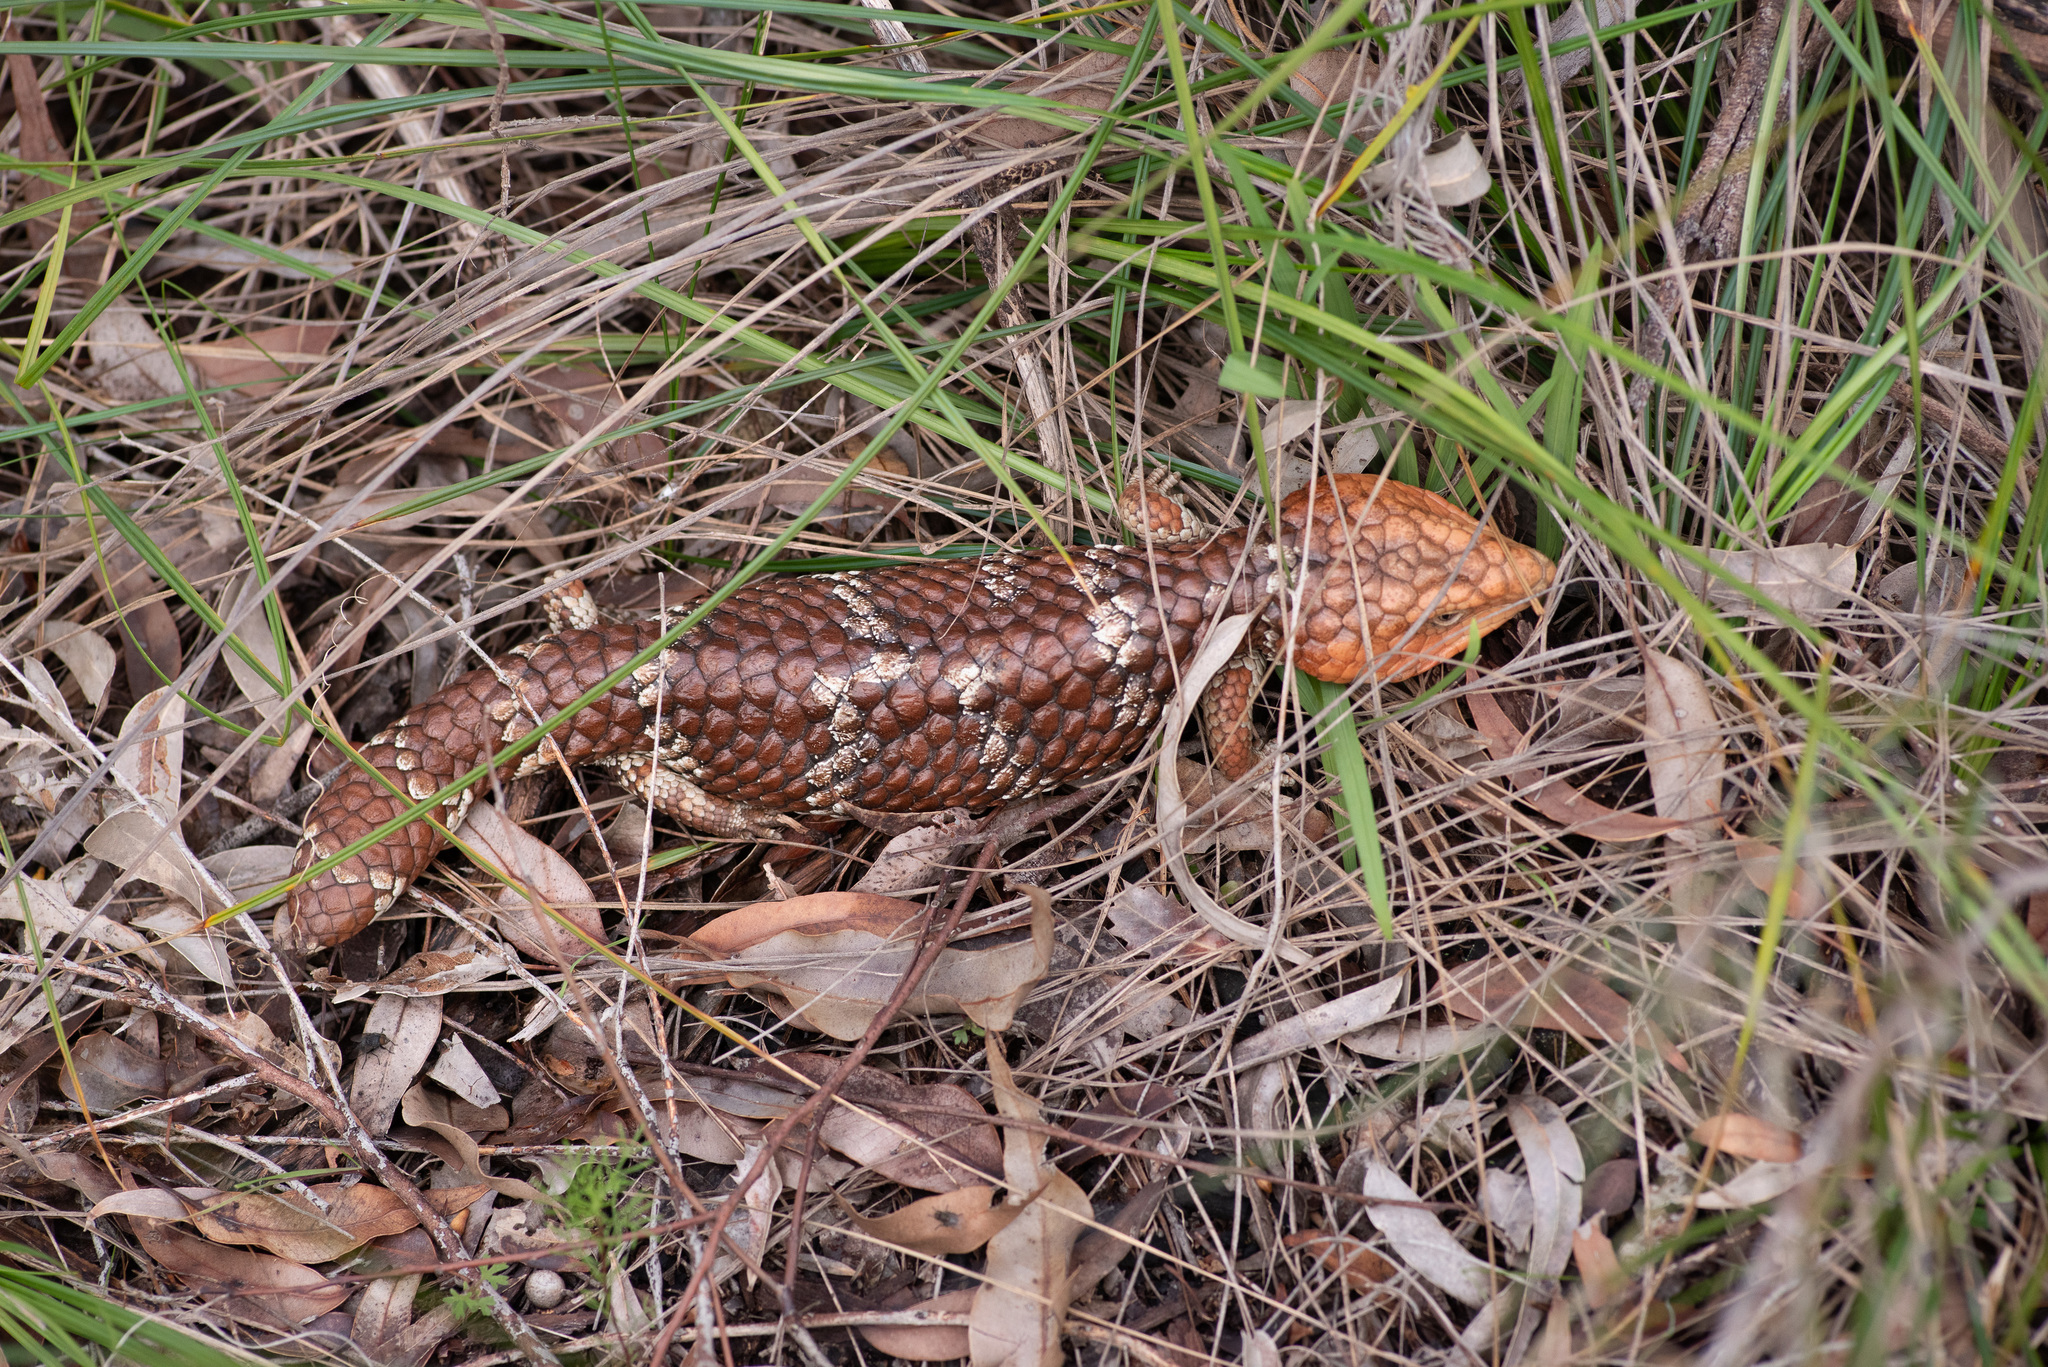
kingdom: Animalia
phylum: Chordata
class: Squamata
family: Scincidae
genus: Tiliqua
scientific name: Tiliqua rugosa
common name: Pinecone lizard
